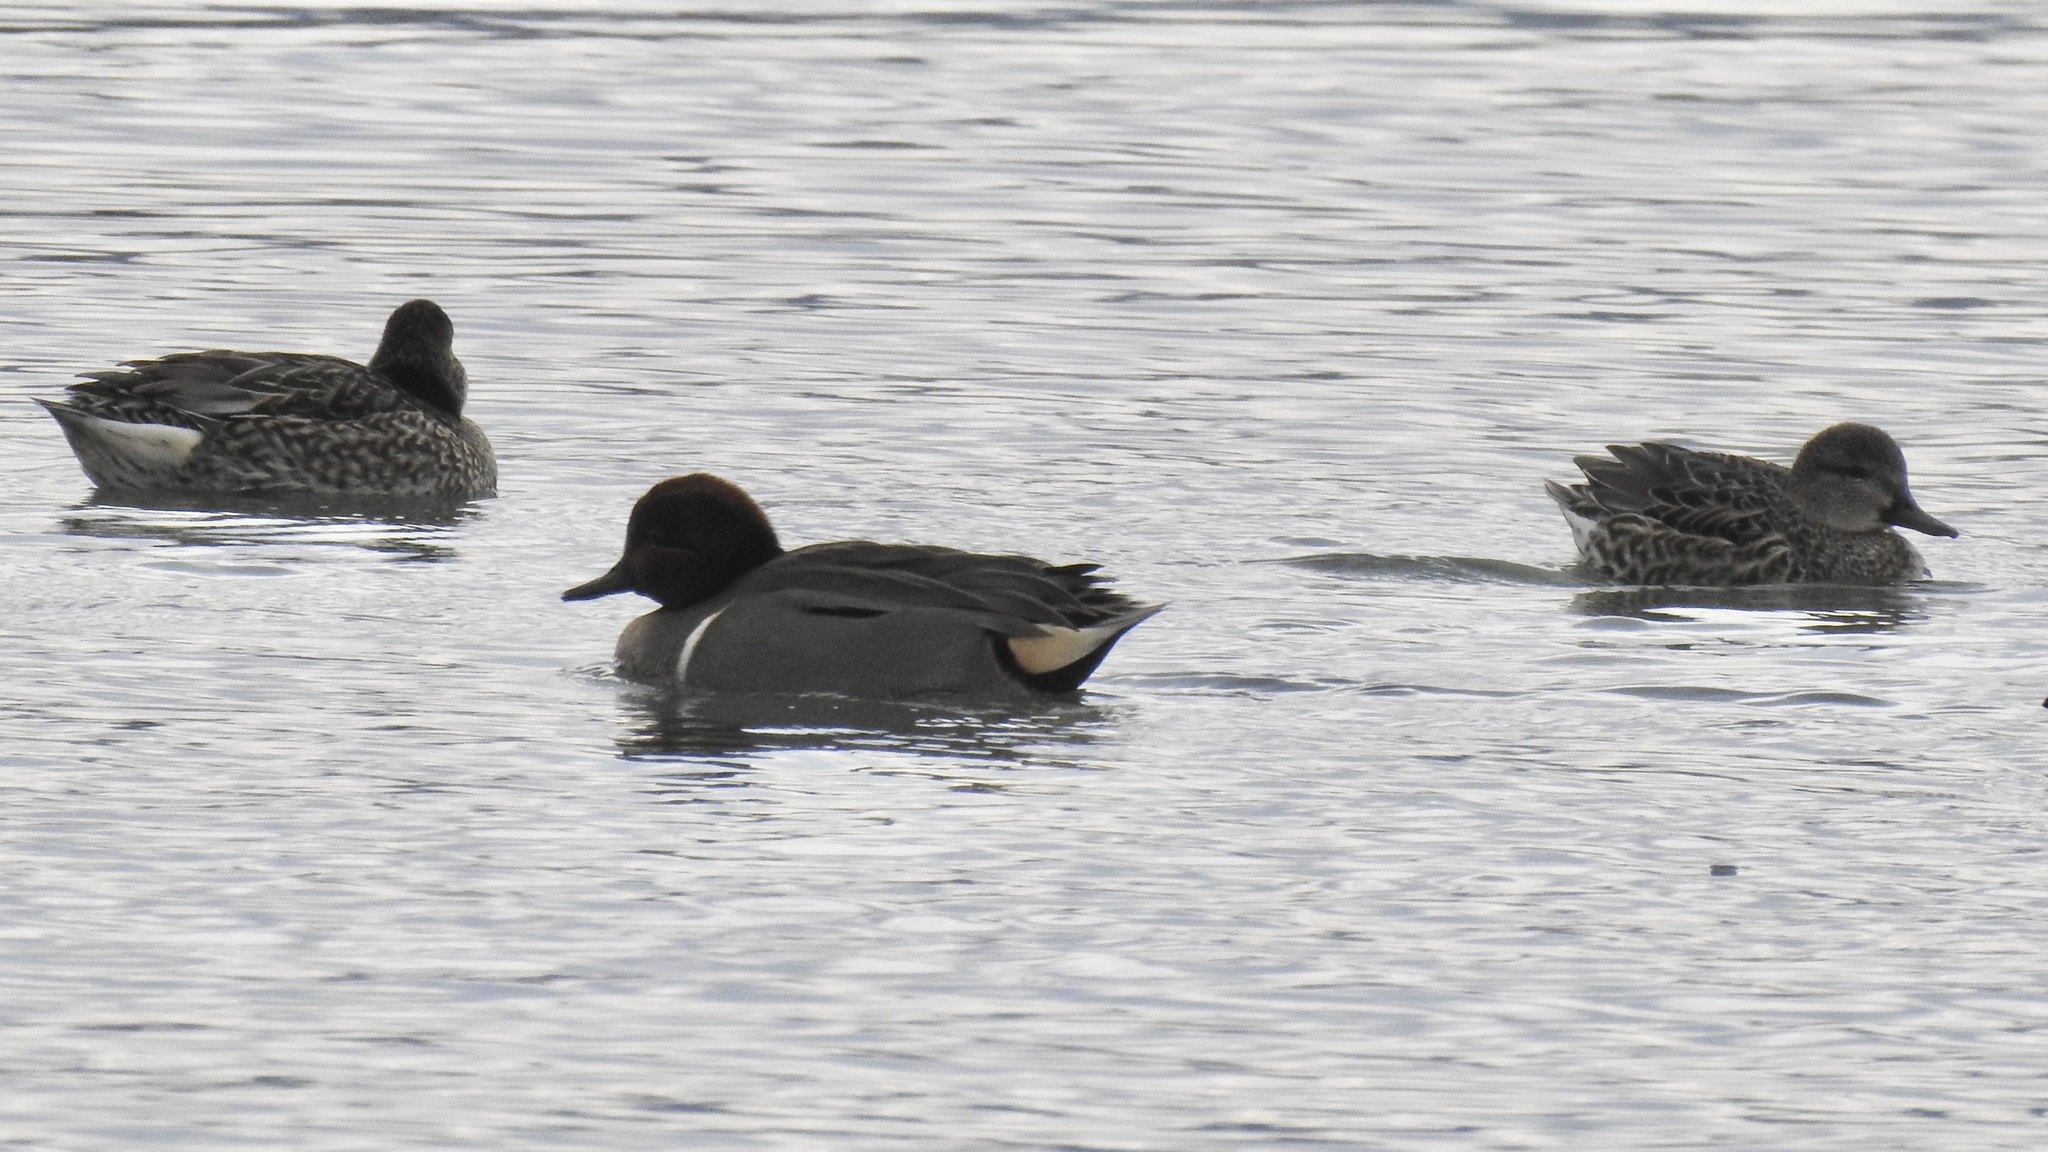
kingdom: Animalia
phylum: Chordata
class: Aves
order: Anseriformes
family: Anatidae
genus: Anas
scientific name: Anas crecca
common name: Eurasian teal
